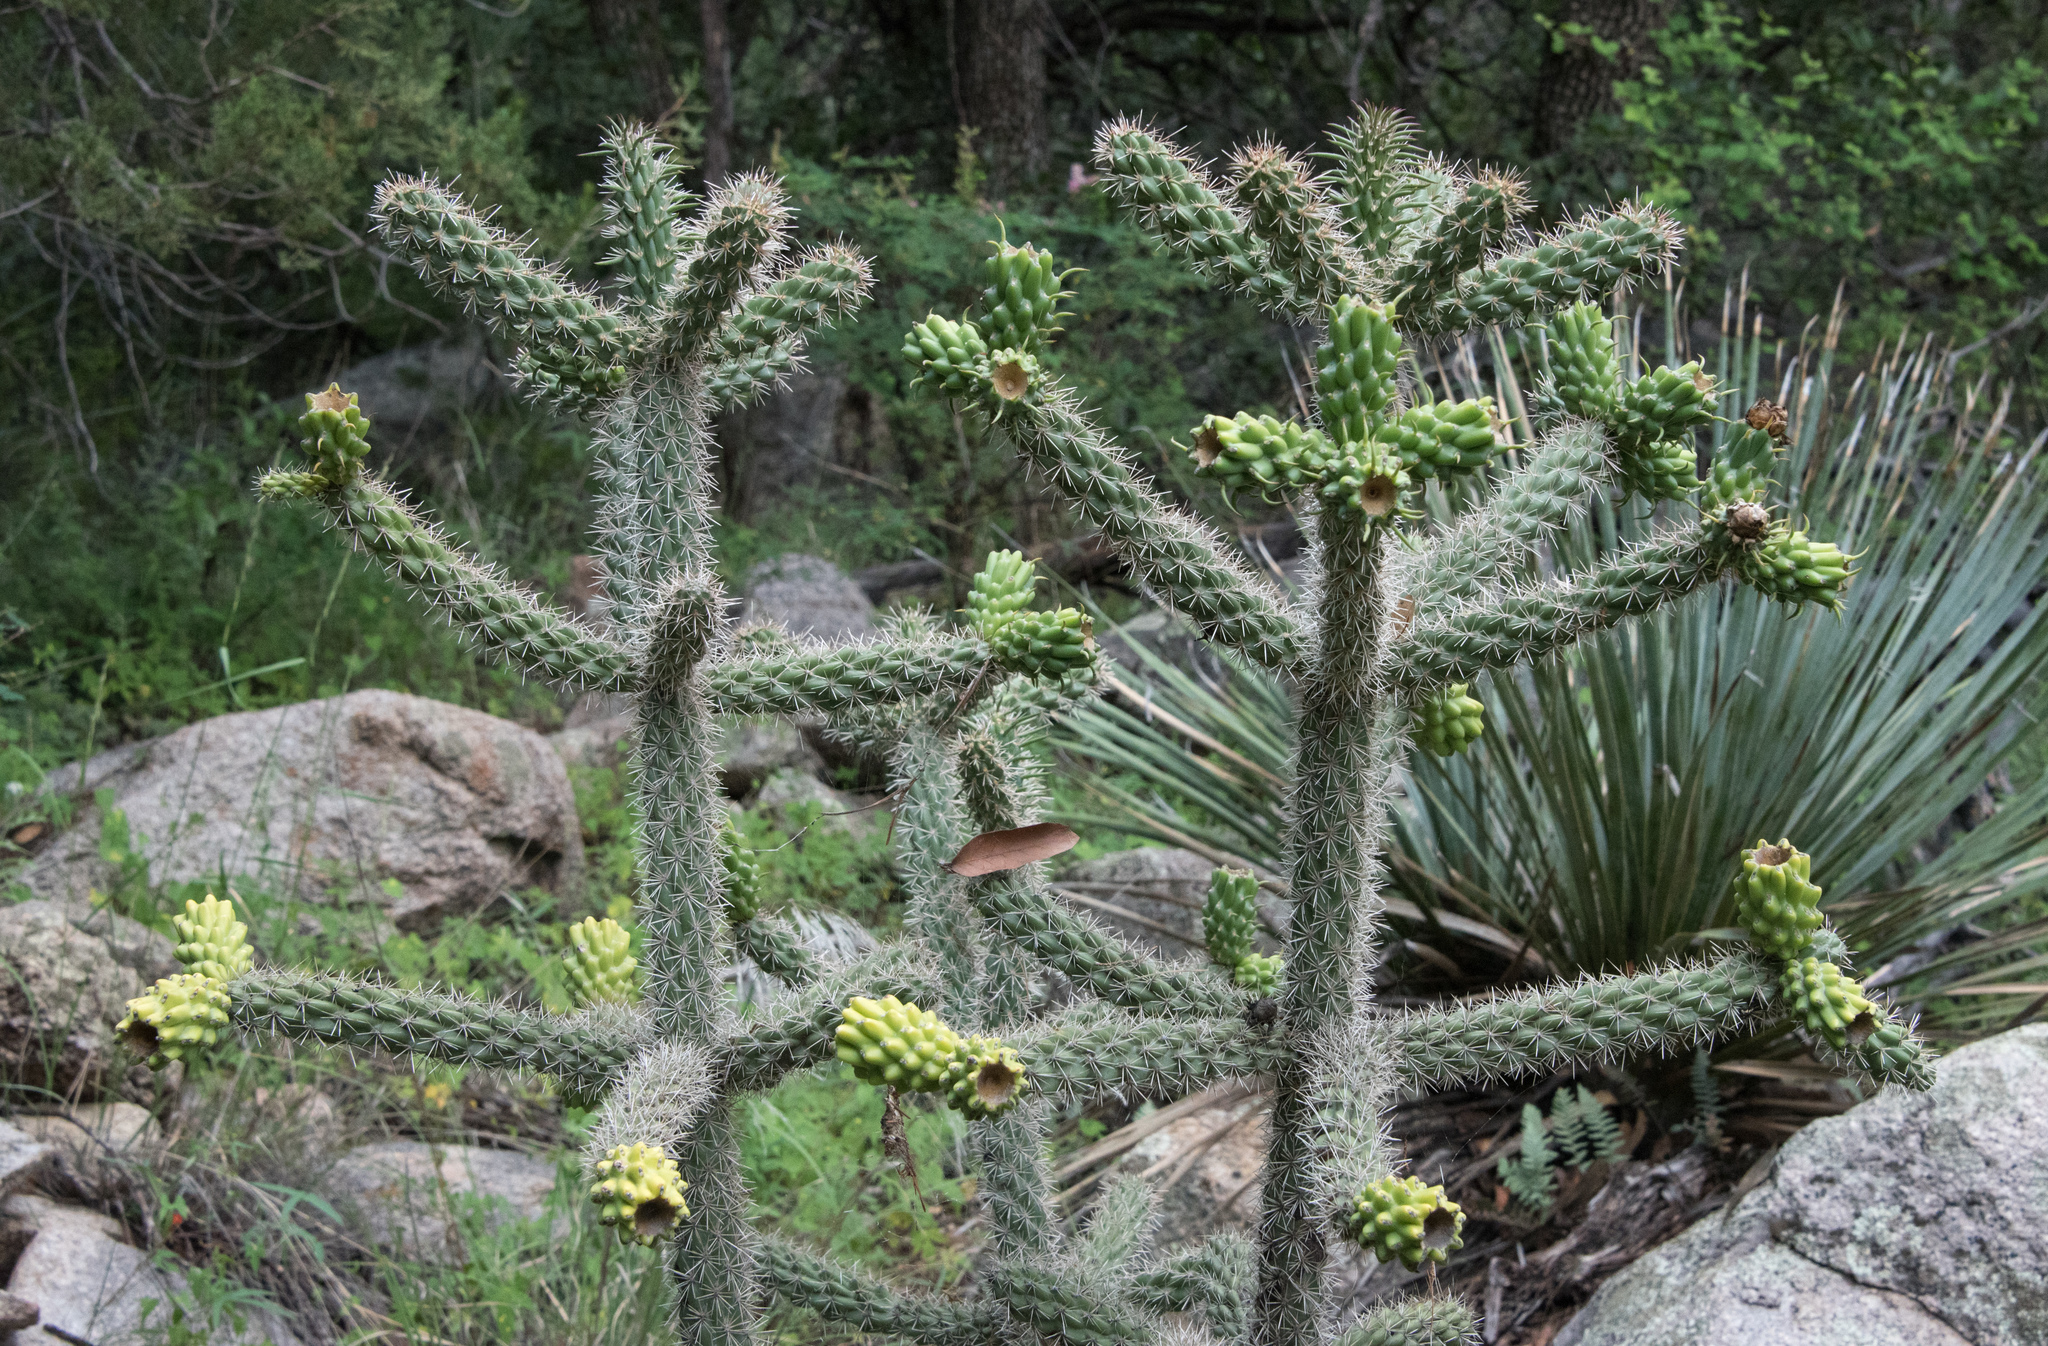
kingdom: Plantae
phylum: Tracheophyta
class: Magnoliopsida
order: Caryophyllales
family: Cactaceae
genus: Cylindropuntia
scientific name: Cylindropuntia imbricata
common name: Candelabrum cactus
